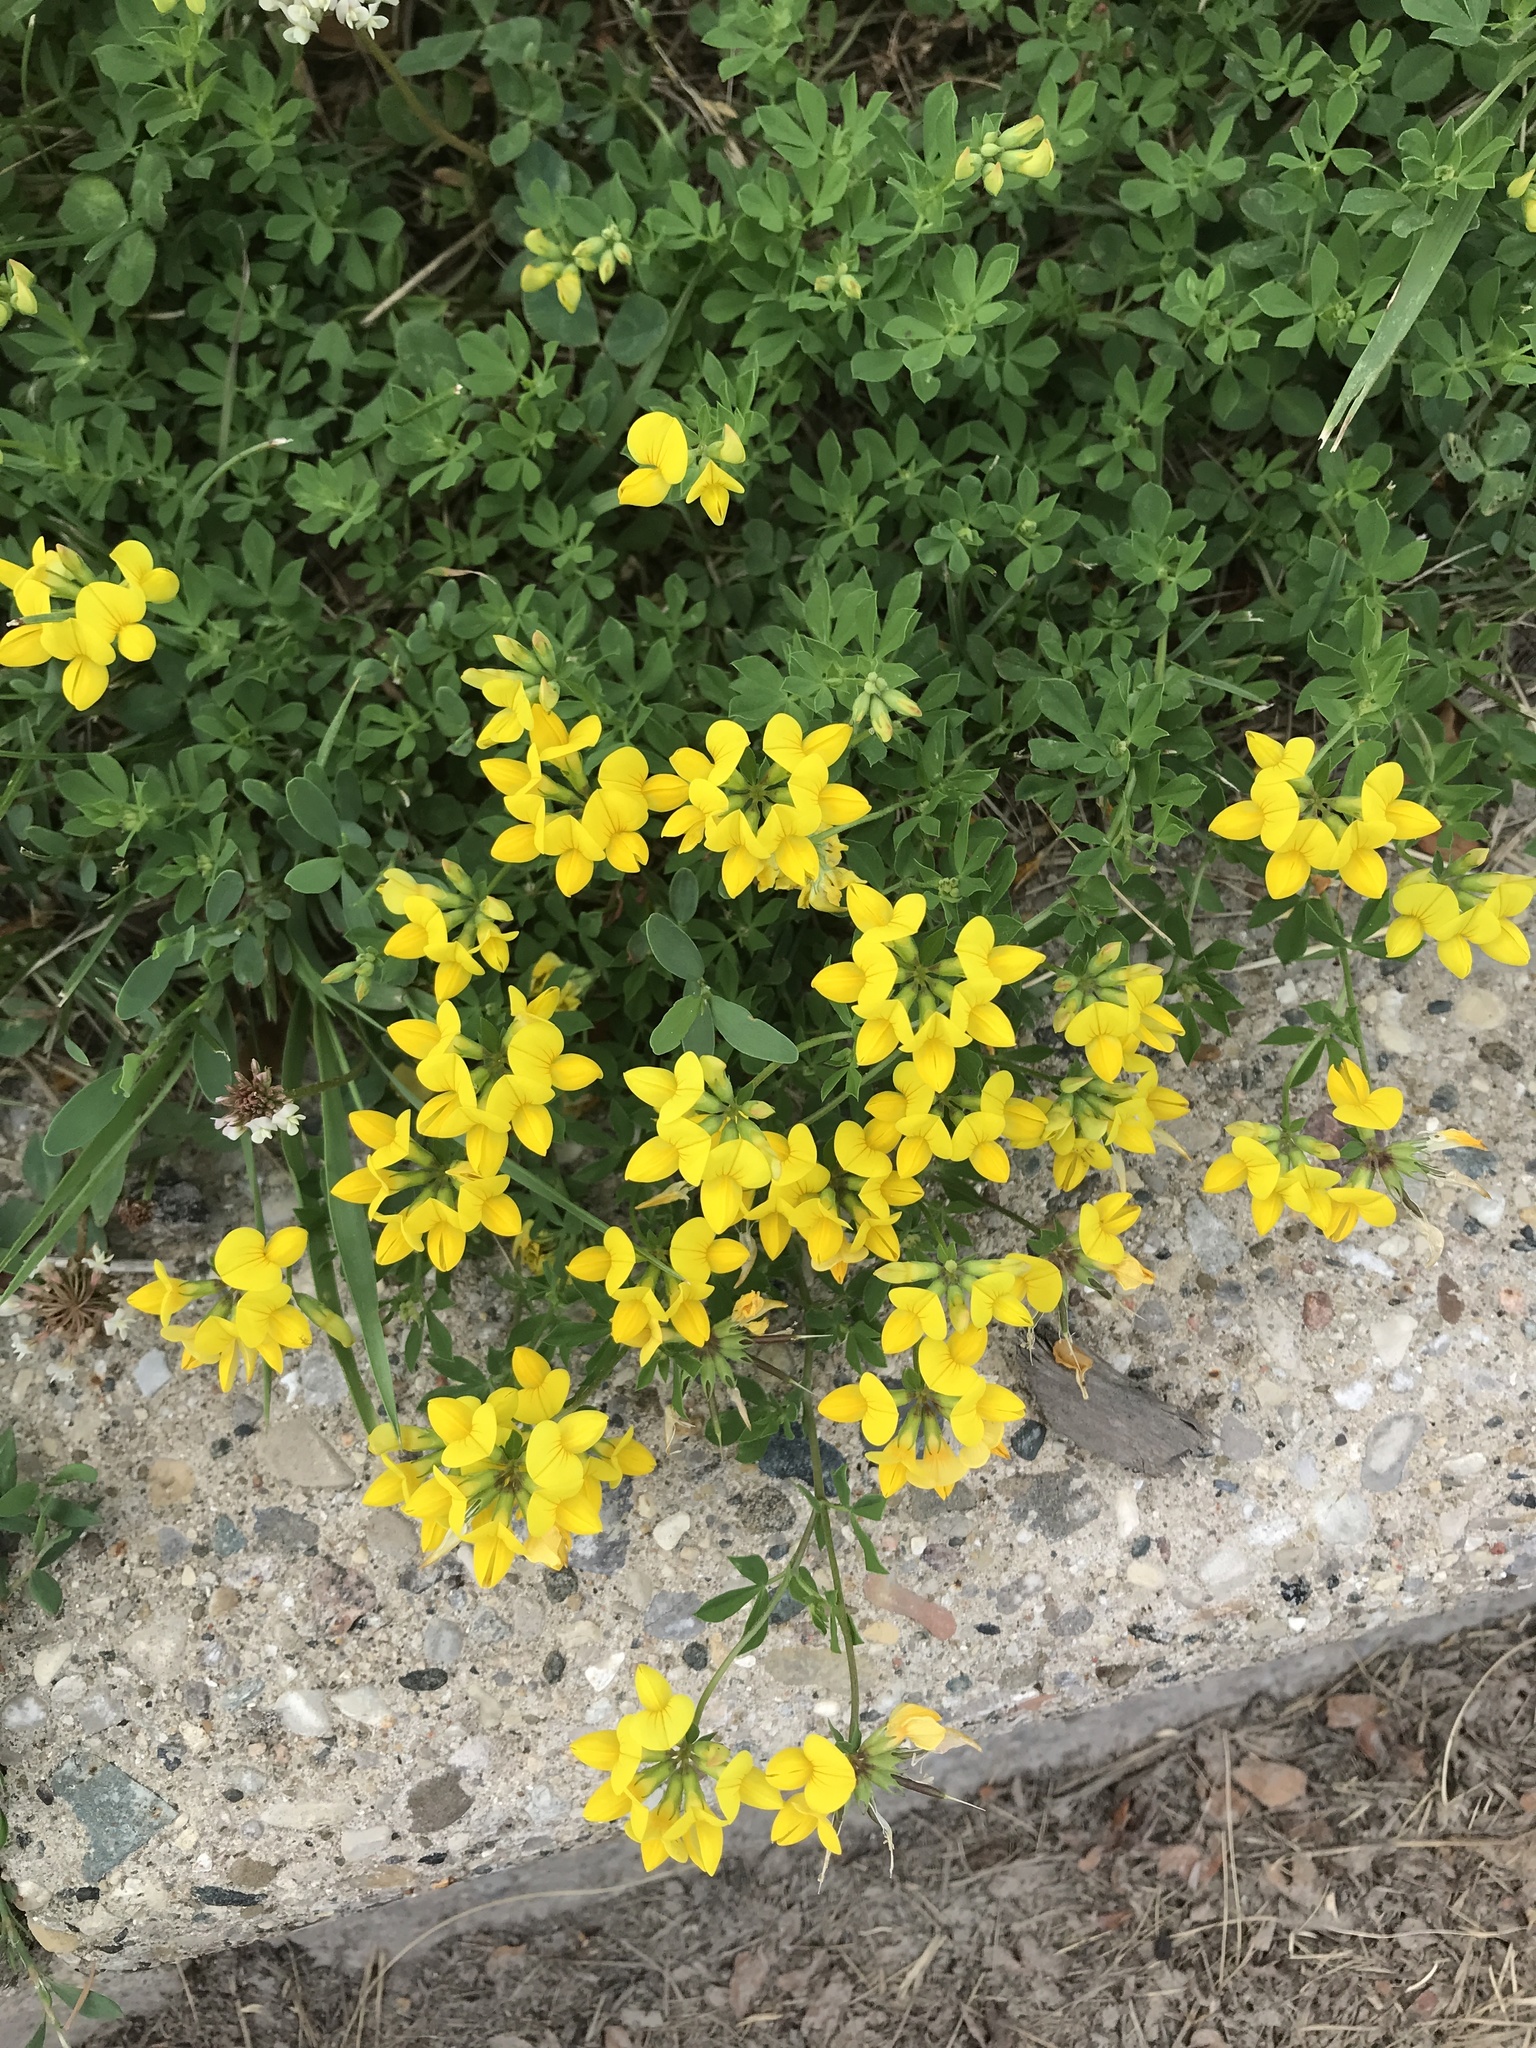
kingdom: Plantae
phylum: Tracheophyta
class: Magnoliopsida
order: Fabales
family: Fabaceae
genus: Lotus
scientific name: Lotus corniculatus
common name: Common bird's-foot-trefoil
